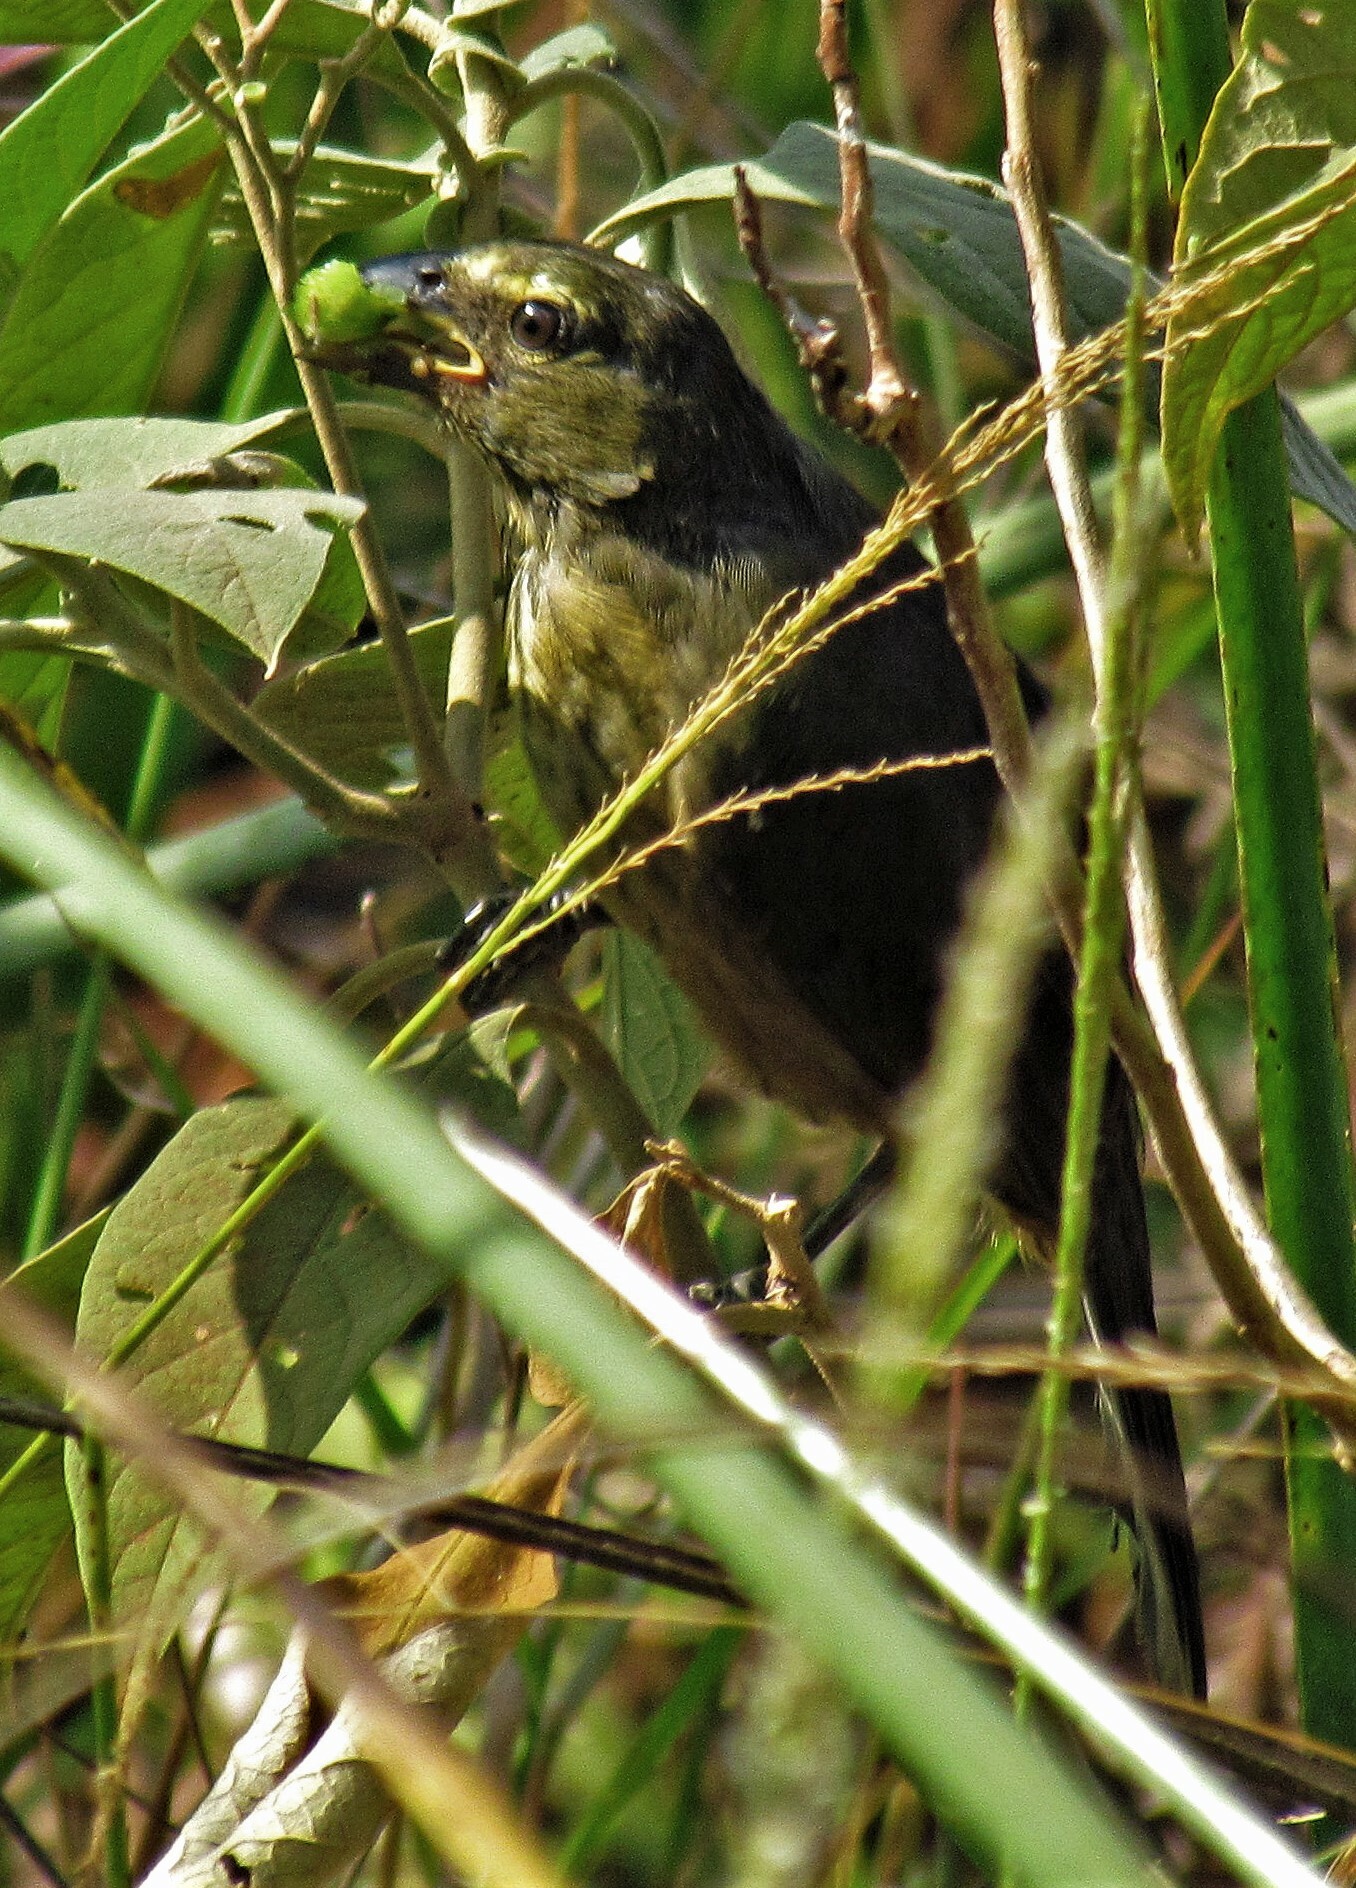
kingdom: Animalia
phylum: Chordata
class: Aves
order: Passeriformes
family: Thraupidae
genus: Saltator
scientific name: Saltator coerulescens
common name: Grayish saltator
